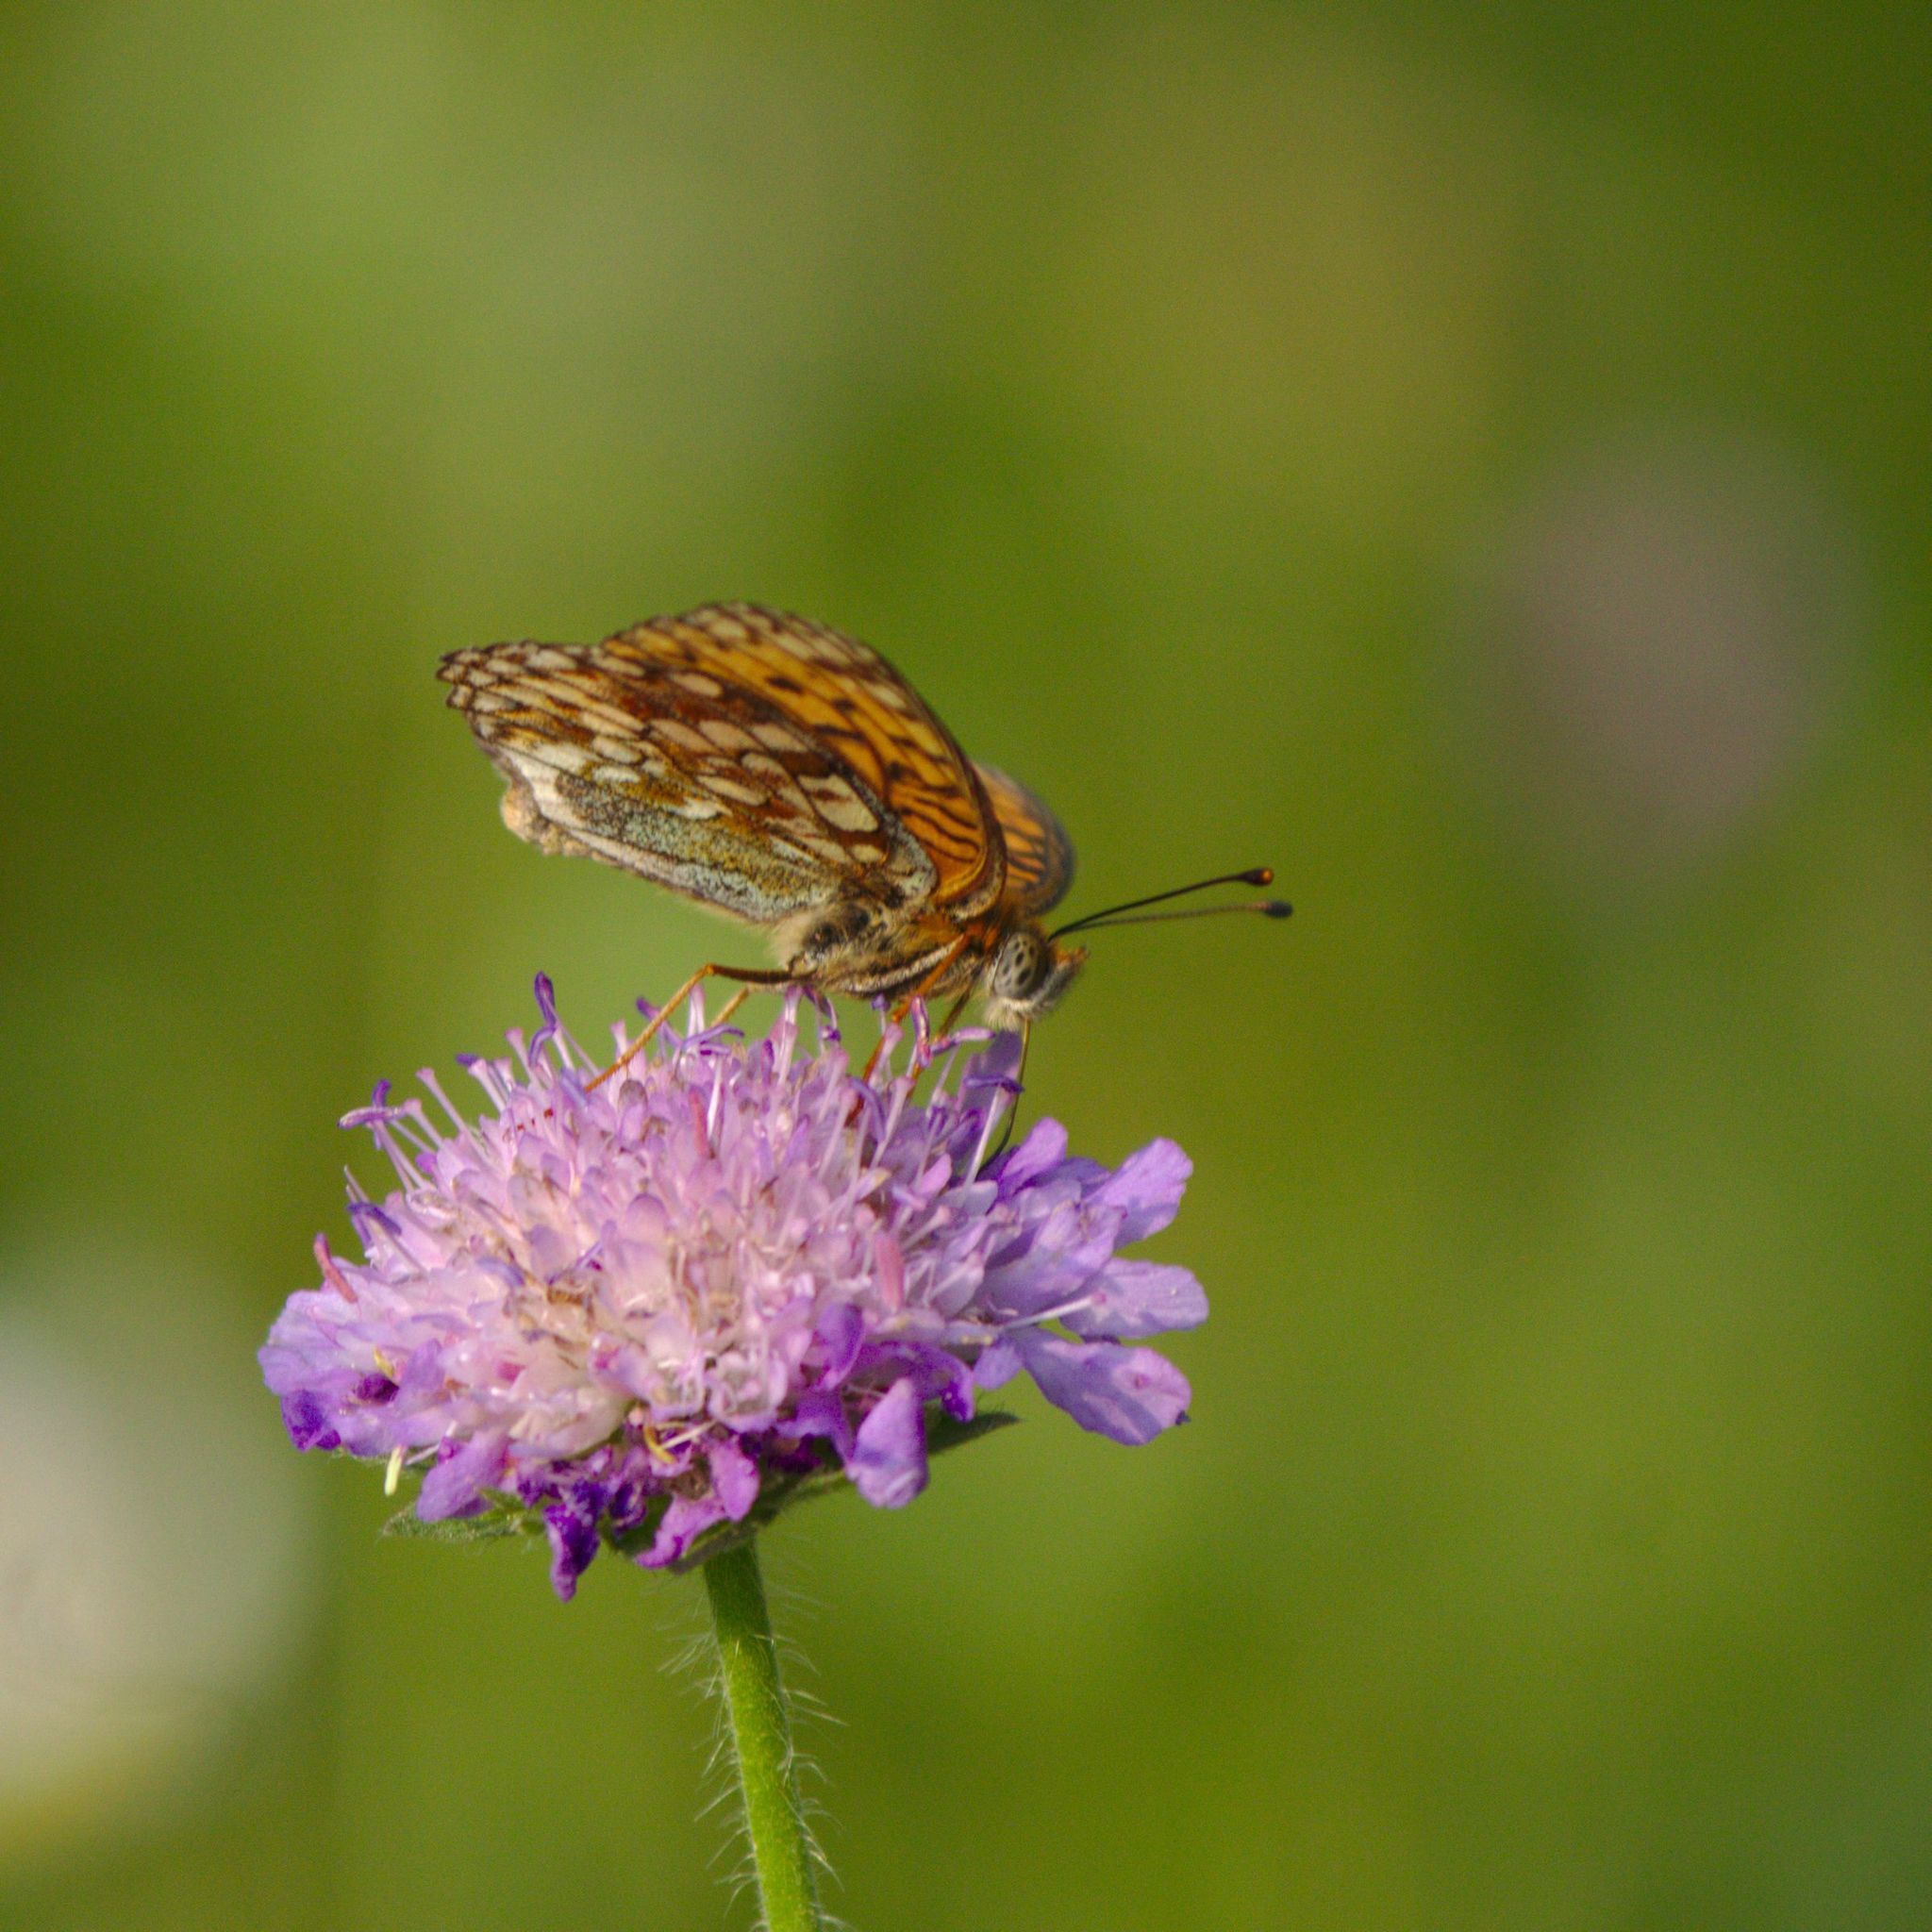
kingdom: Animalia
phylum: Arthropoda
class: Insecta
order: Lepidoptera
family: Nymphalidae
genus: Fabriciana
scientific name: Fabriciana niobe
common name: Niobe fritillary
